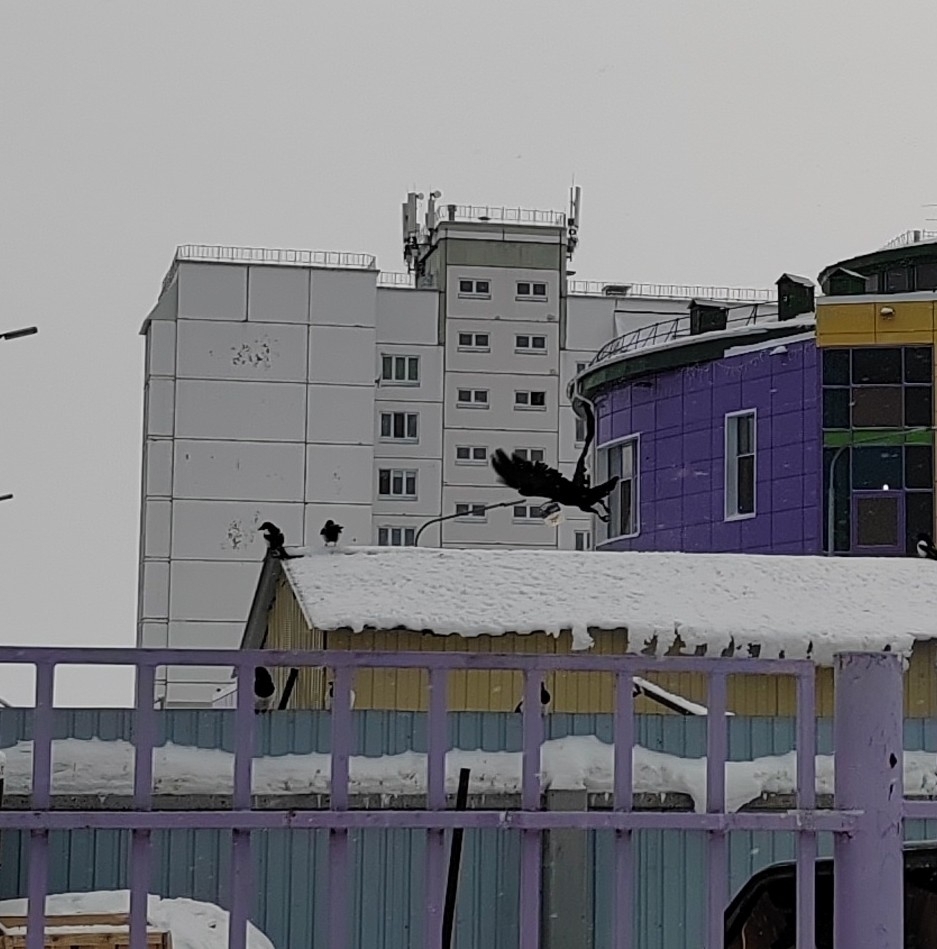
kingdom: Animalia
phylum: Chordata
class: Aves
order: Passeriformes
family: Corvidae
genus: Corvus
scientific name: Corvus corax
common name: Common raven
